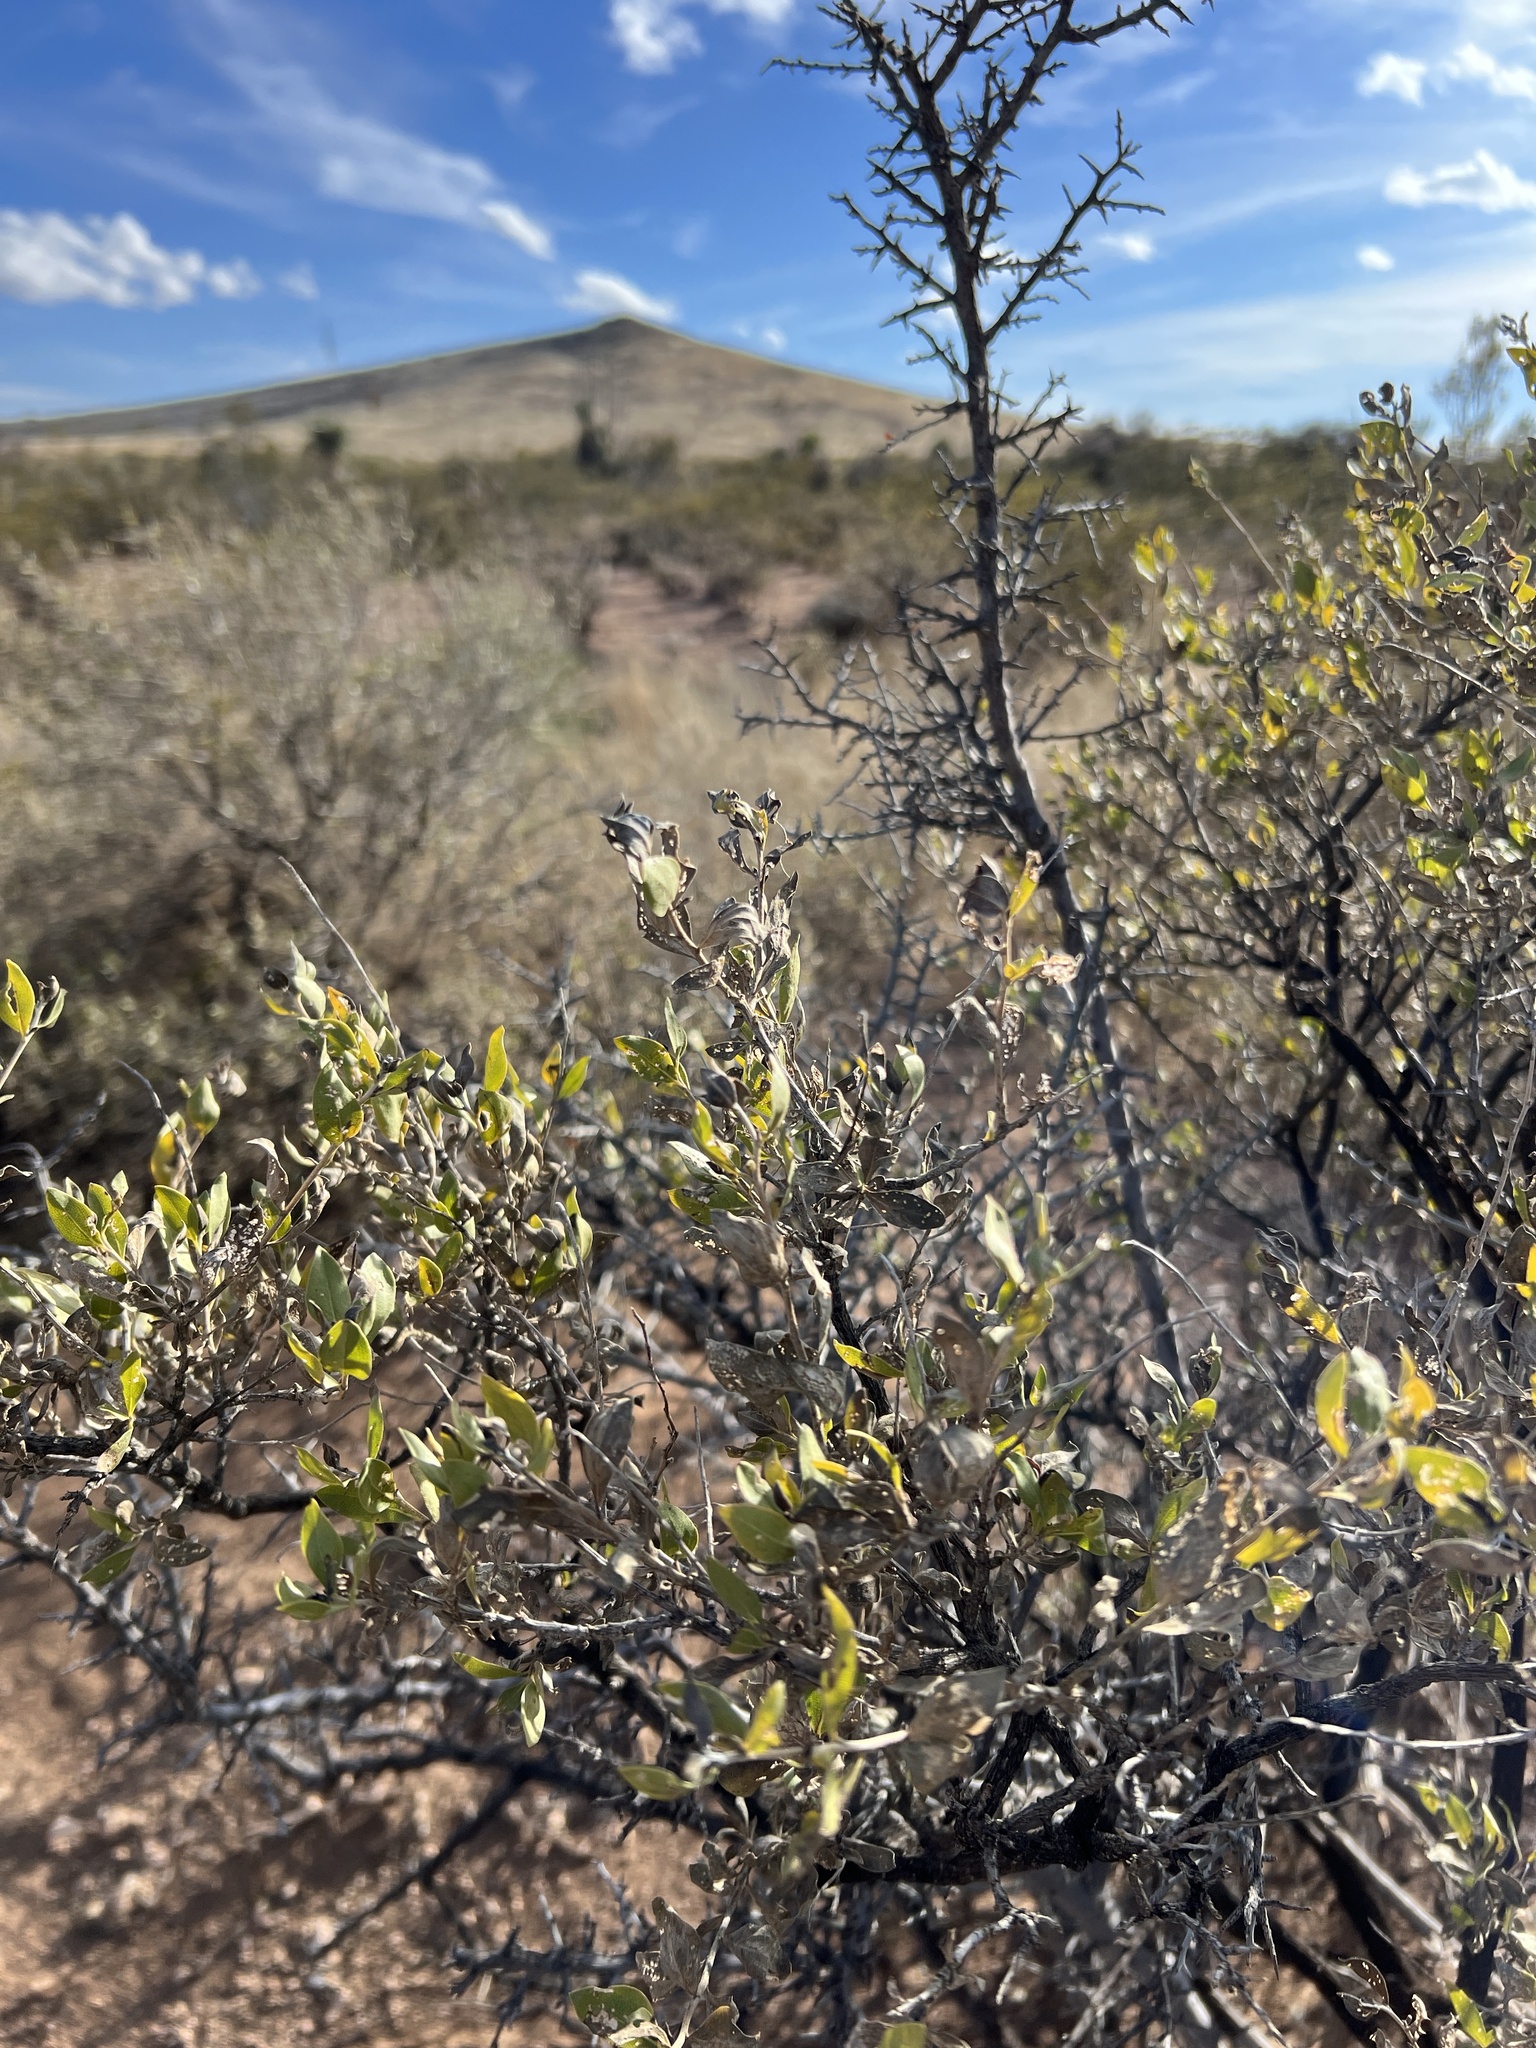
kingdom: Plantae
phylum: Tracheophyta
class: Magnoliopsida
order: Asterales
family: Asteraceae
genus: Flourensia
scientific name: Flourensia cernua
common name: Varnishbush
